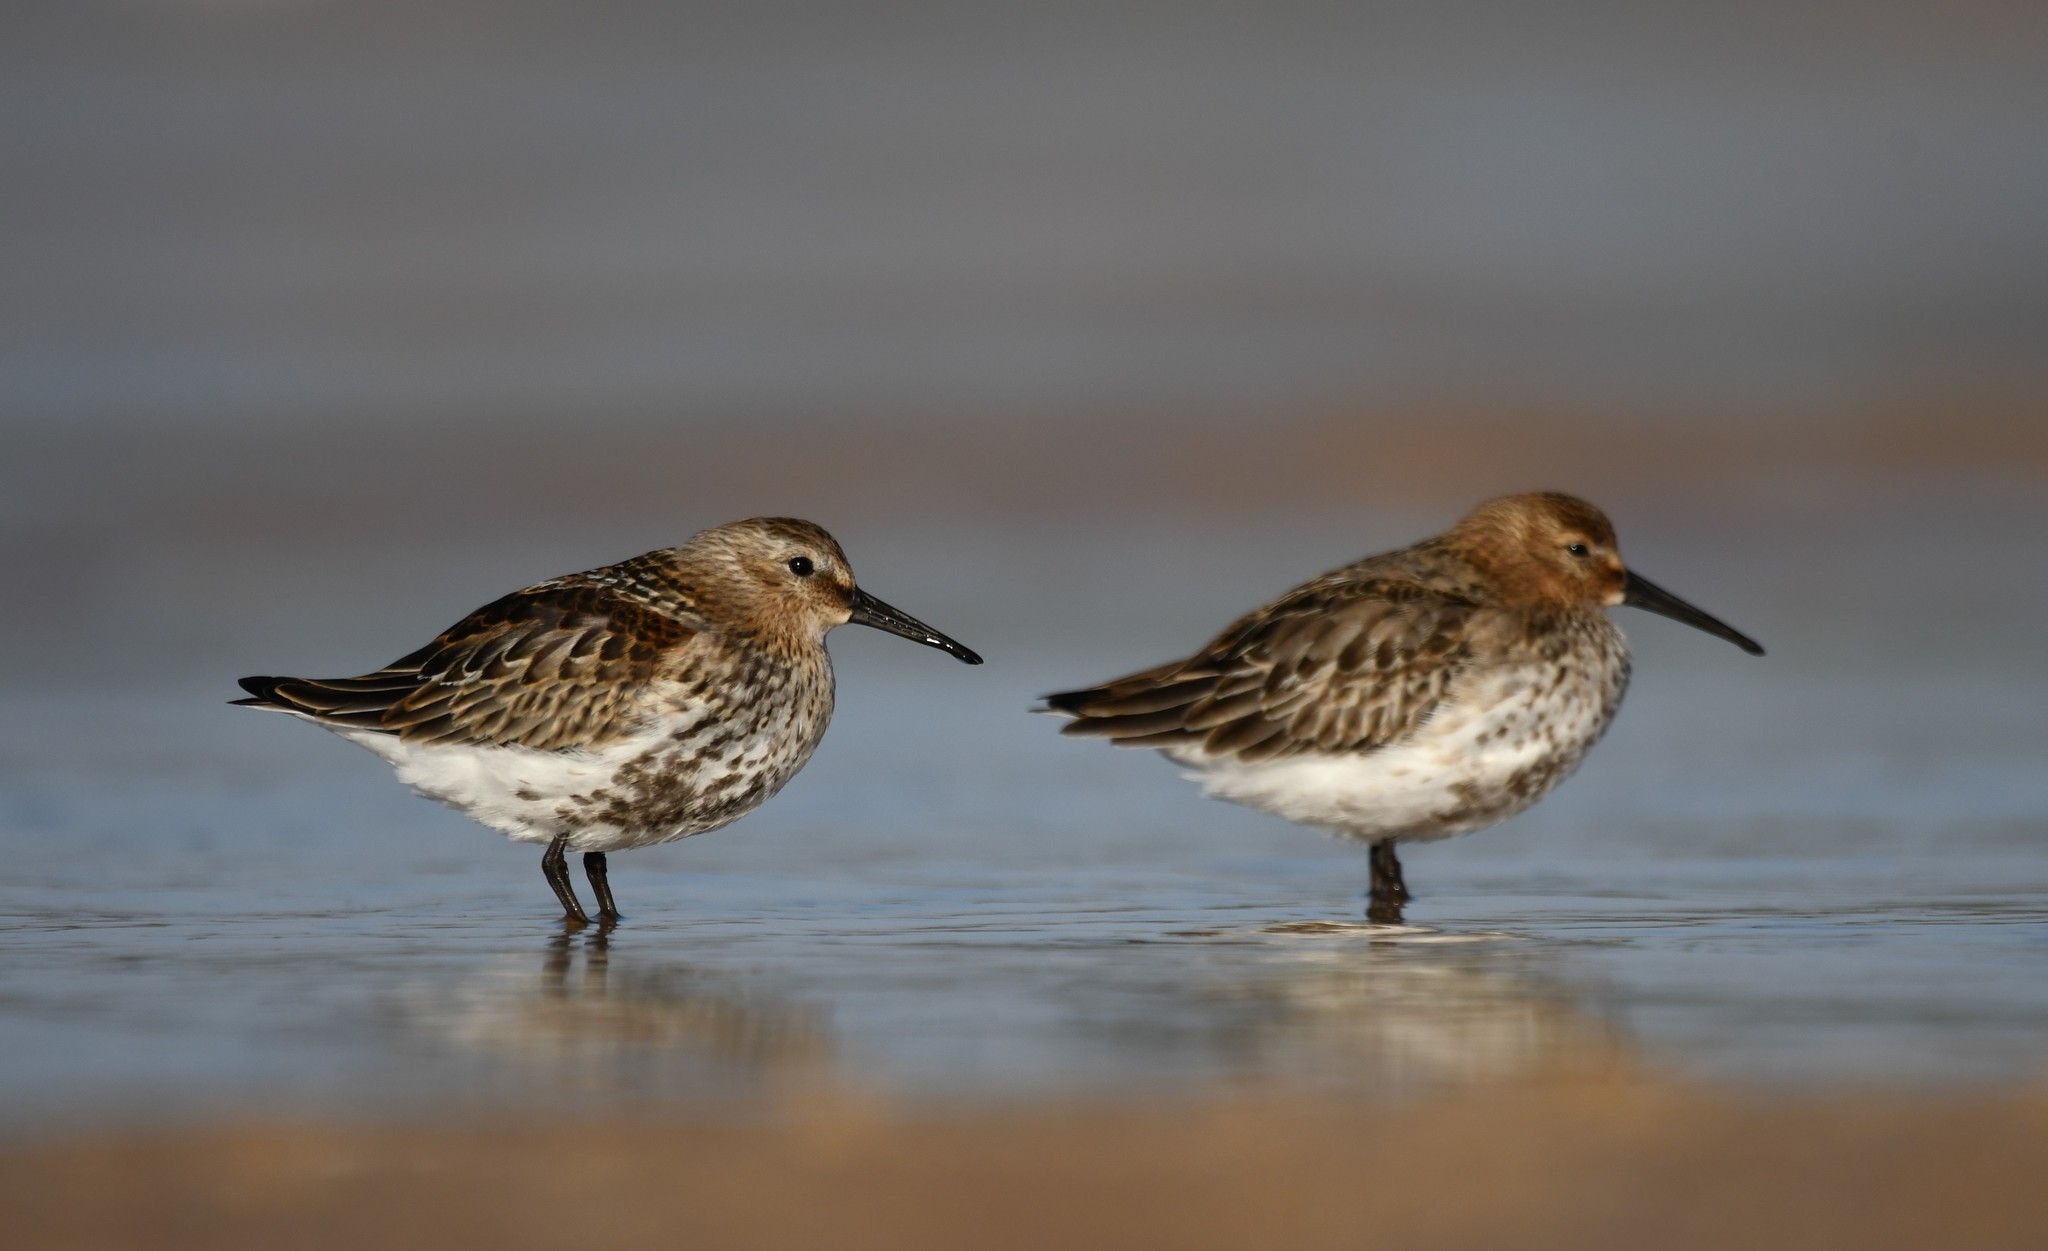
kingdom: Animalia
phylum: Chordata
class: Aves
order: Charadriiformes
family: Scolopacidae
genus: Calidris
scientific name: Calidris alpina
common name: Dunlin
